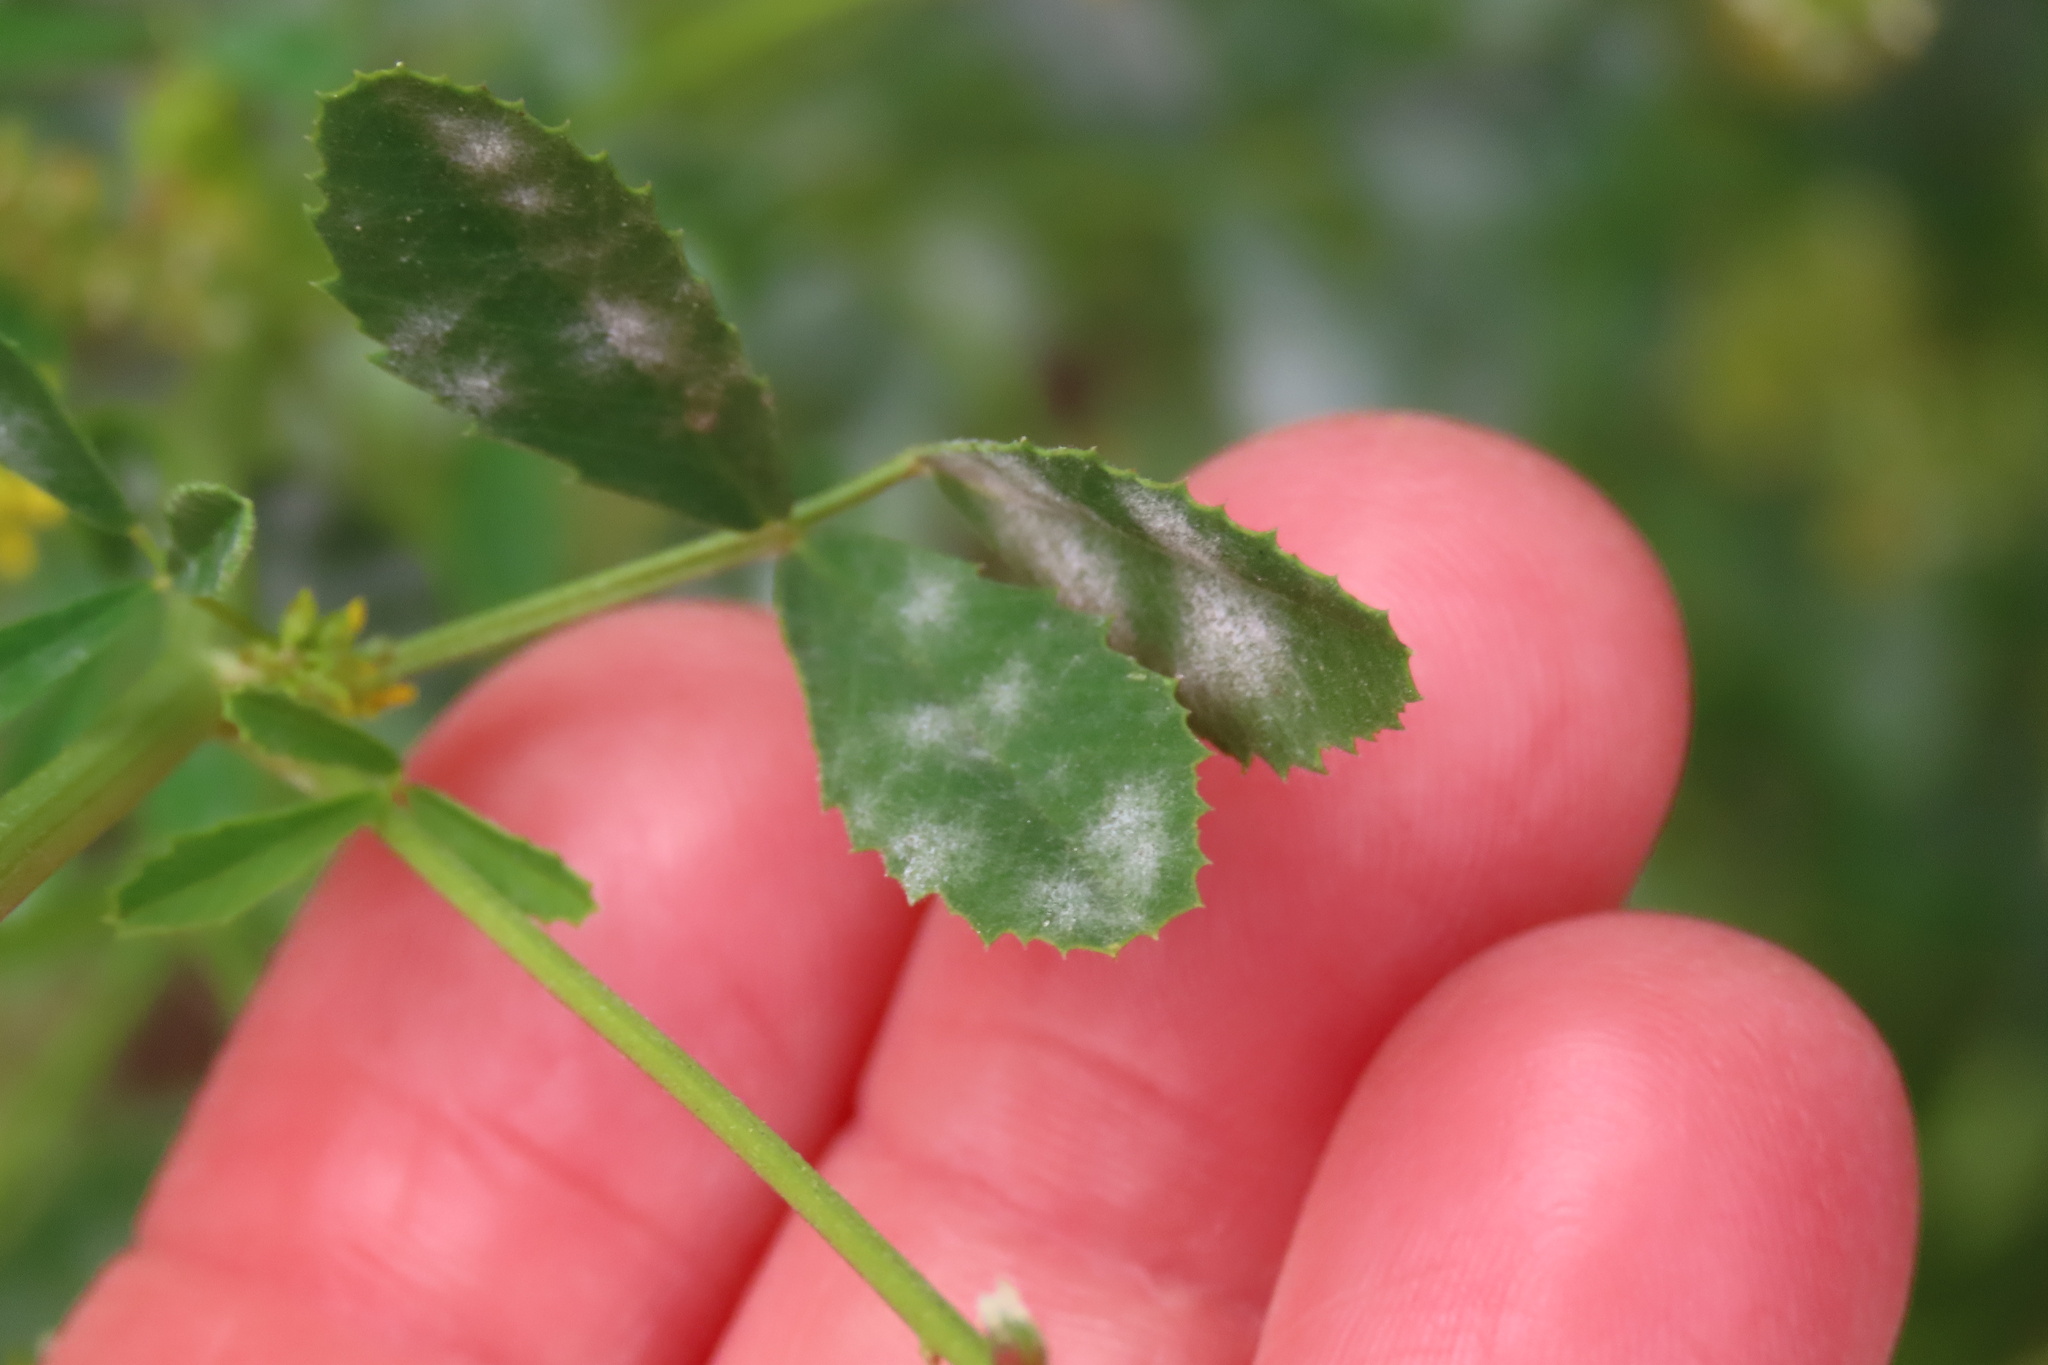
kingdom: Plantae
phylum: Tracheophyta
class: Magnoliopsida
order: Fabales
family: Fabaceae
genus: Melilotus
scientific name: Melilotus indicus
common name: Small melilot
